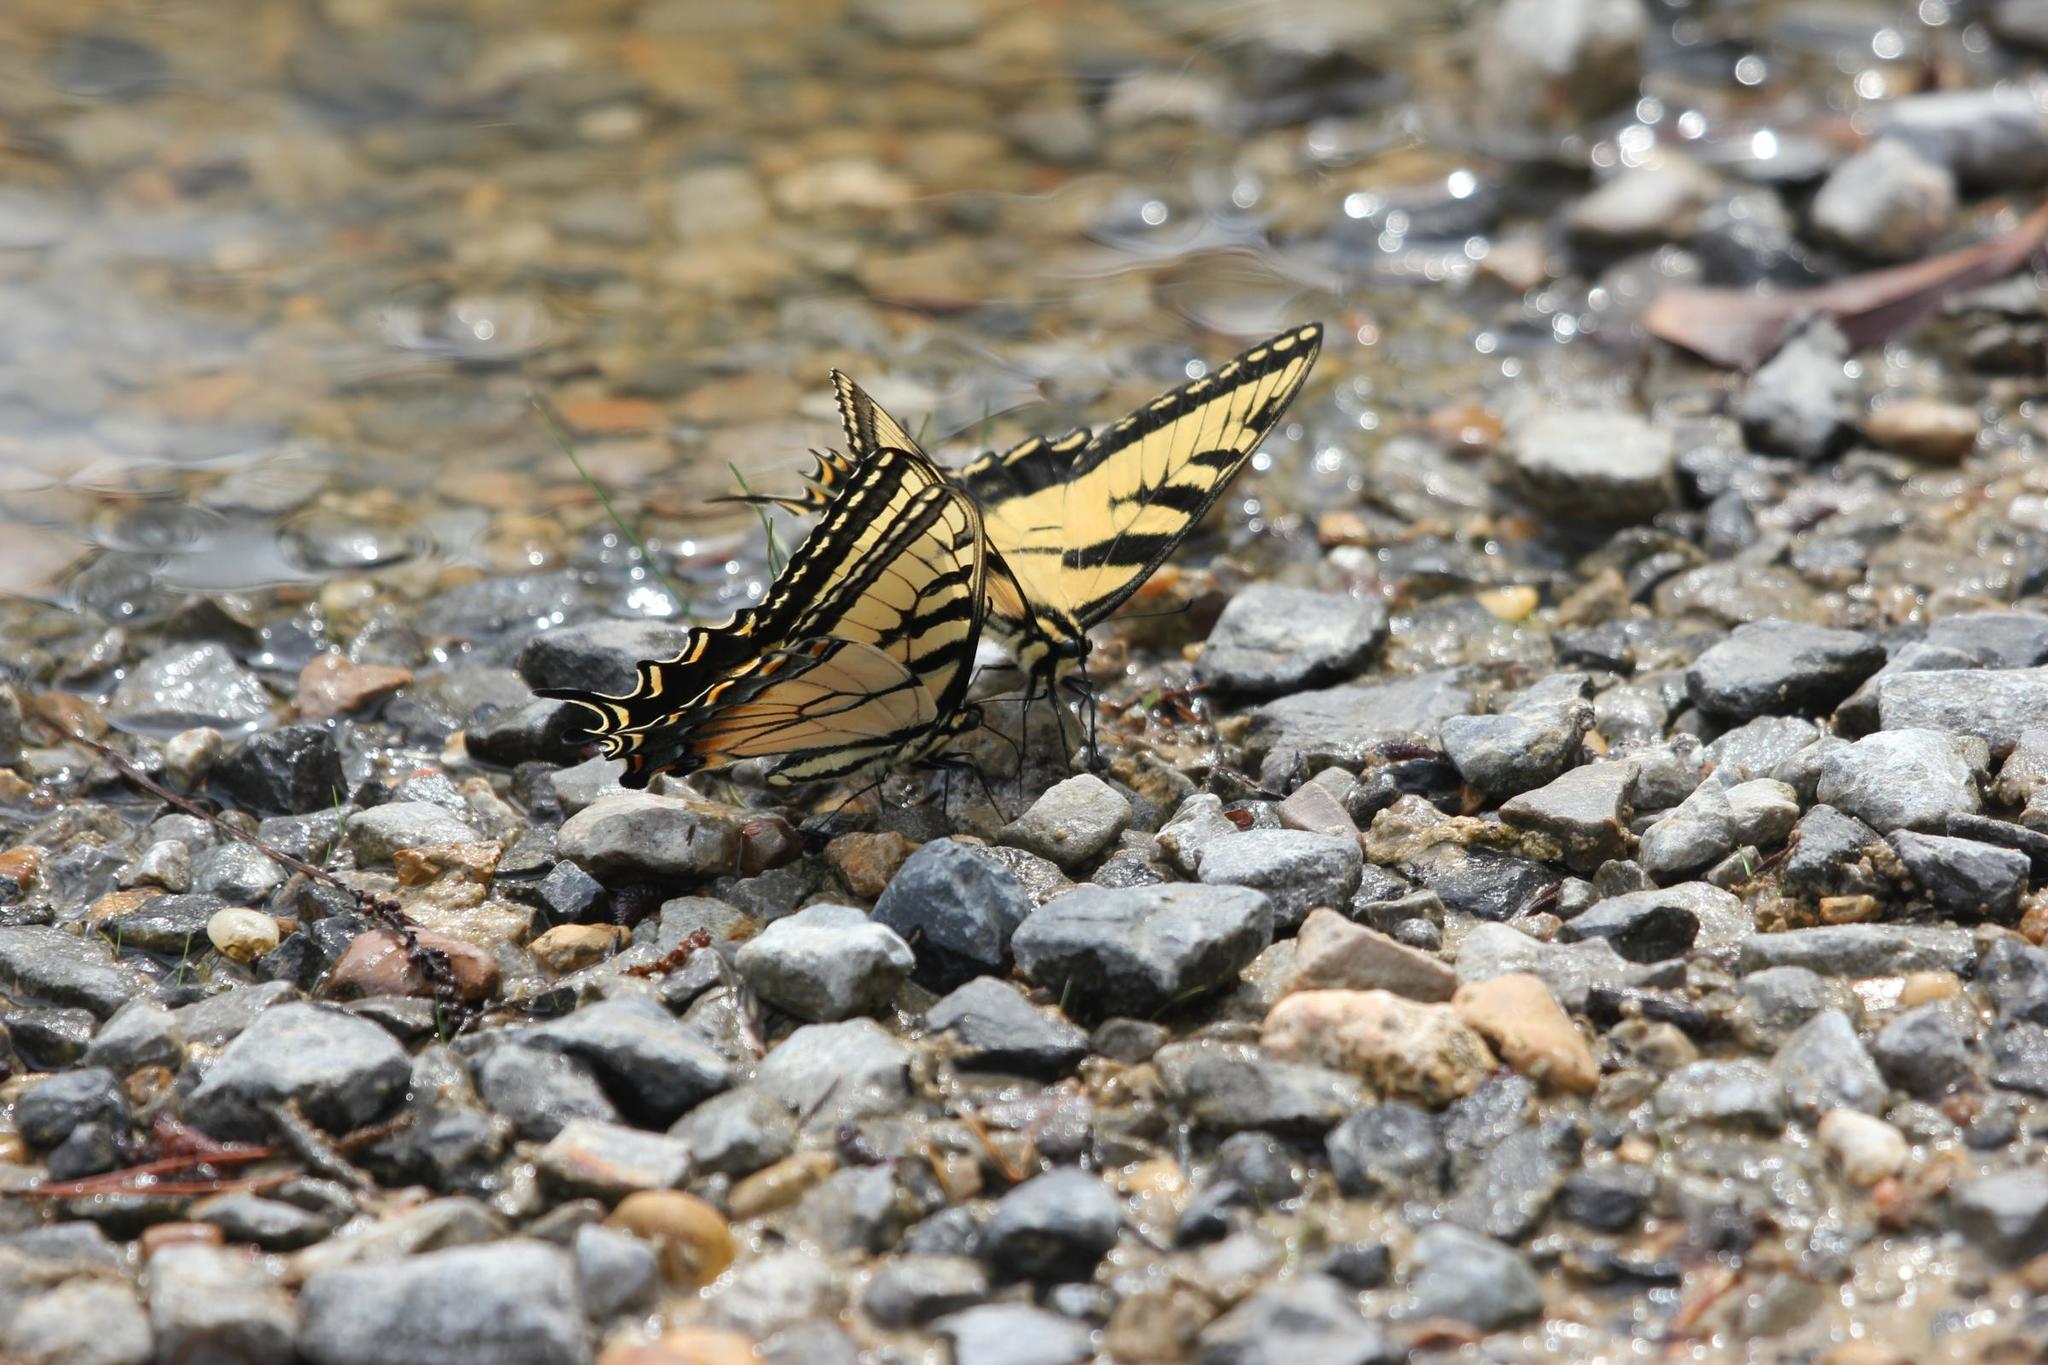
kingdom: Animalia
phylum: Arthropoda
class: Insecta
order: Lepidoptera
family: Papilionidae
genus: Papilio
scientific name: Papilio glaucus
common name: Tiger swallowtail
